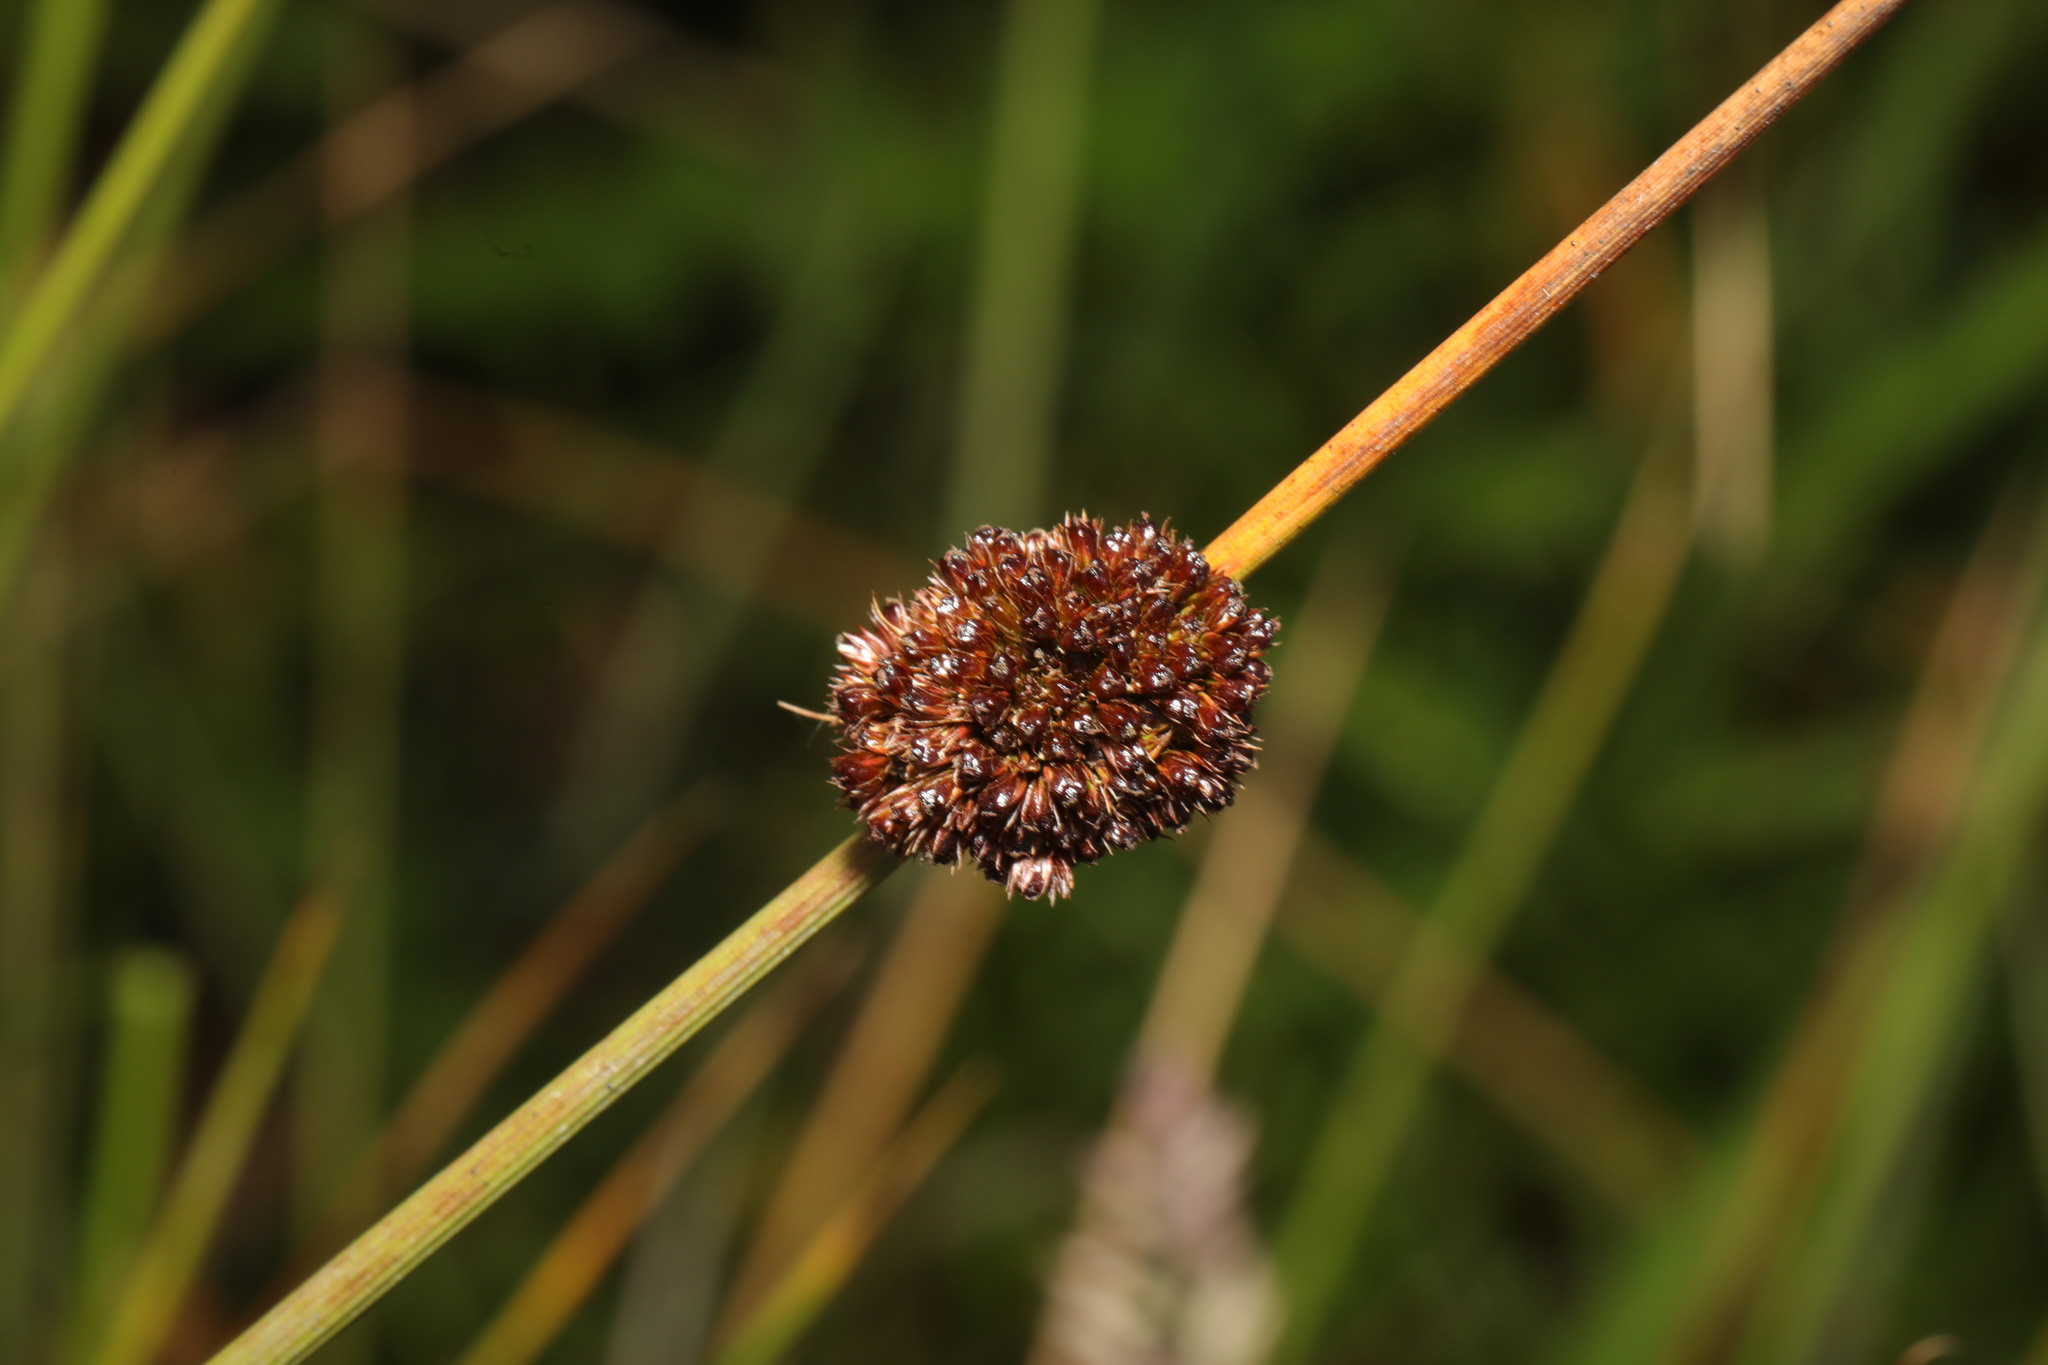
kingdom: Plantae
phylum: Tracheophyta
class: Liliopsida
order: Poales
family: Juncaceae
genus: Juncus
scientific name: Juncus conglomeratus
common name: Compact rush
